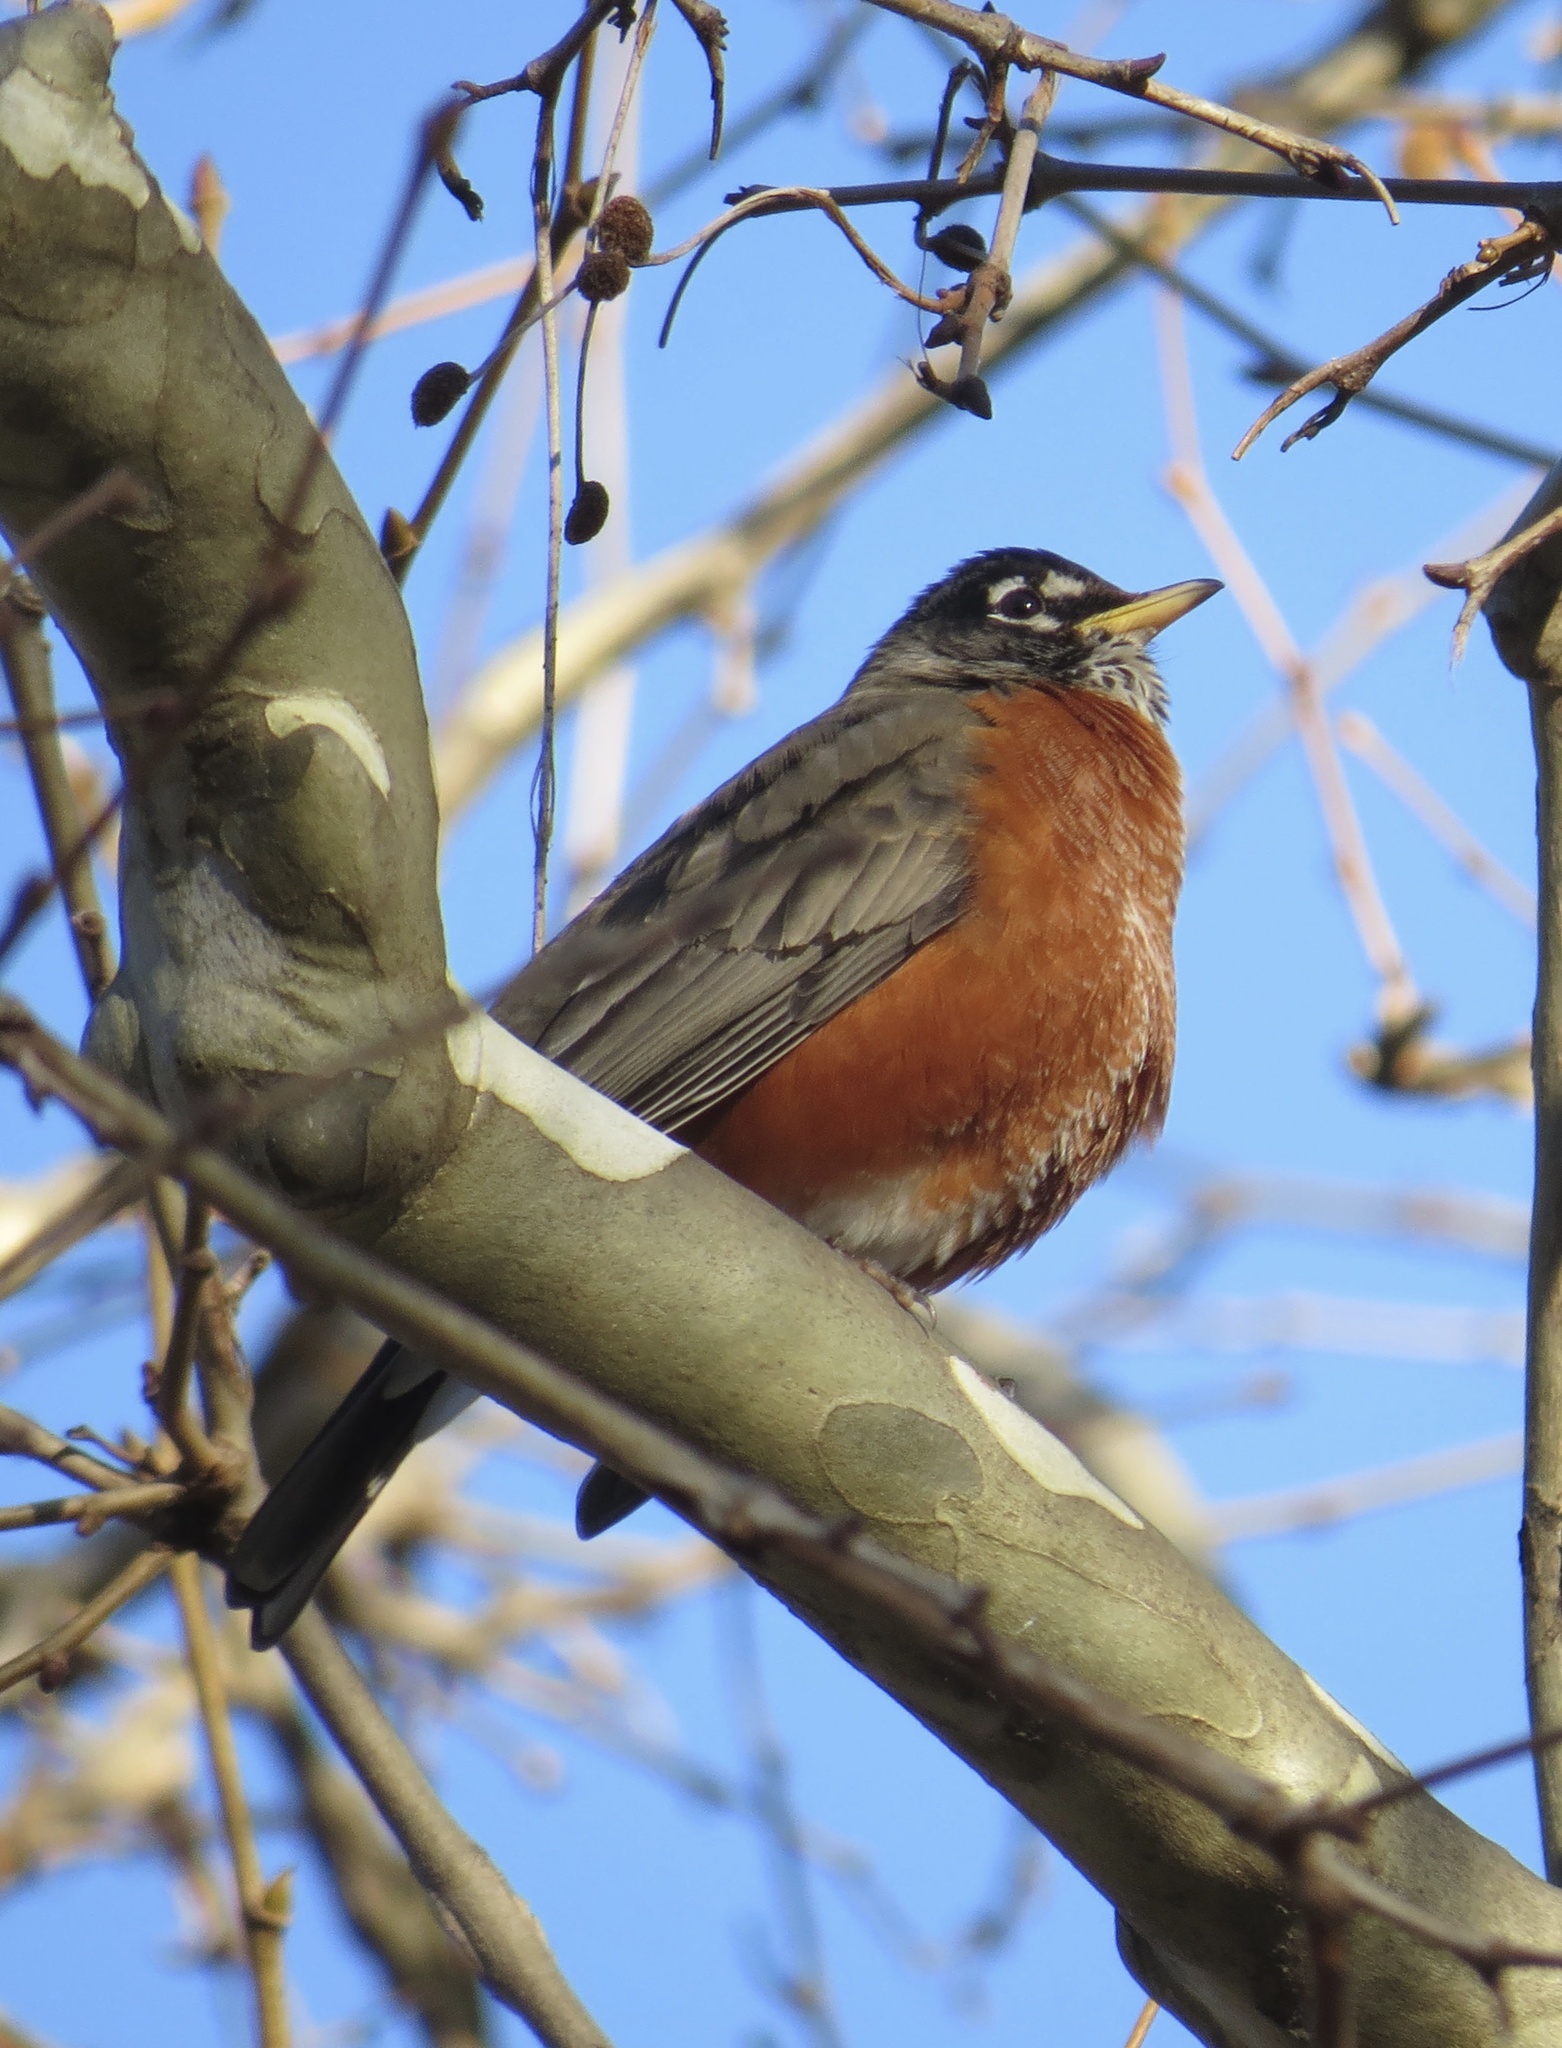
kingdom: Animalia
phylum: Chordata
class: Aves
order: Passeriformes
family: Turdidae
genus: Turdus
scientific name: Turdus migratorius
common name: American robin
